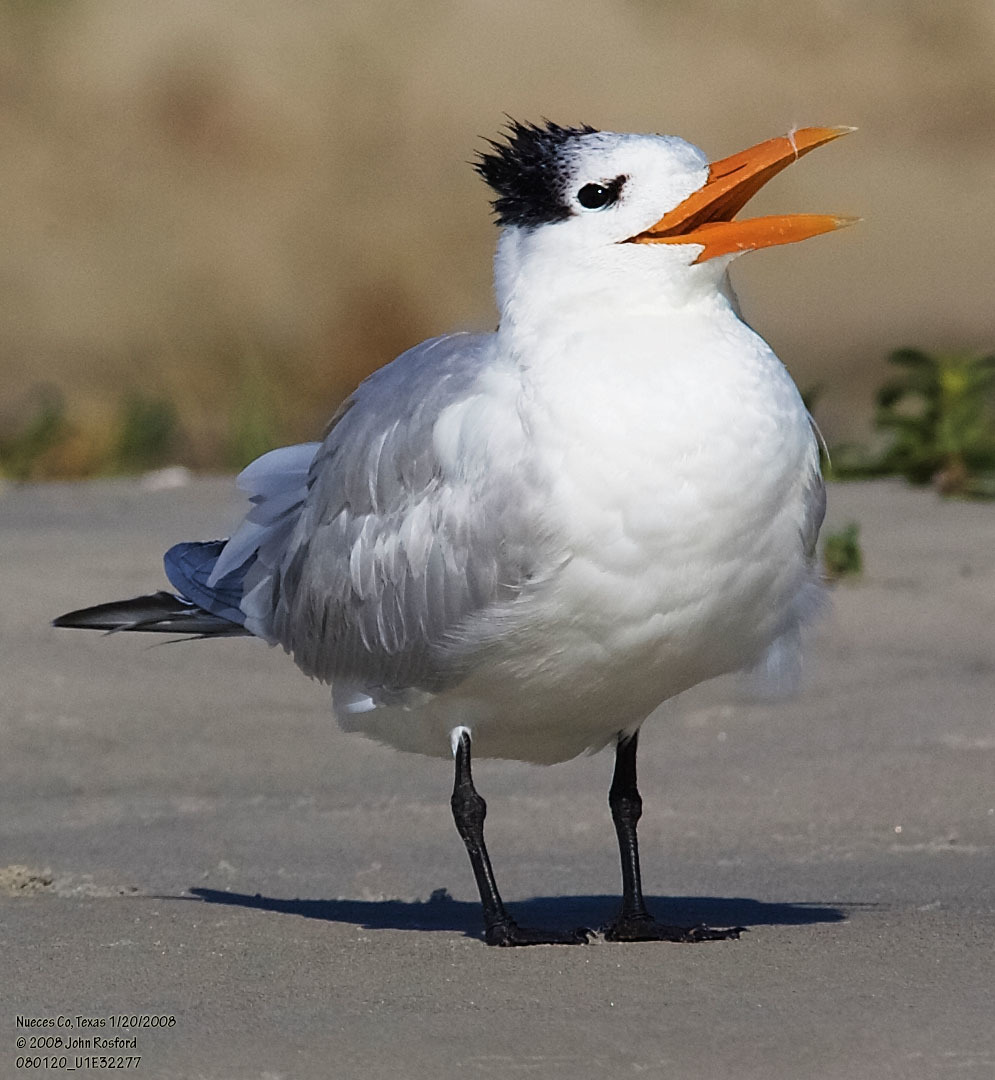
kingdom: Animalia
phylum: Chordata
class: Aves
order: Charadriiformes
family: Laridae
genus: Thalasseus
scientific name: Thalasseus maximus
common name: Royal tern
